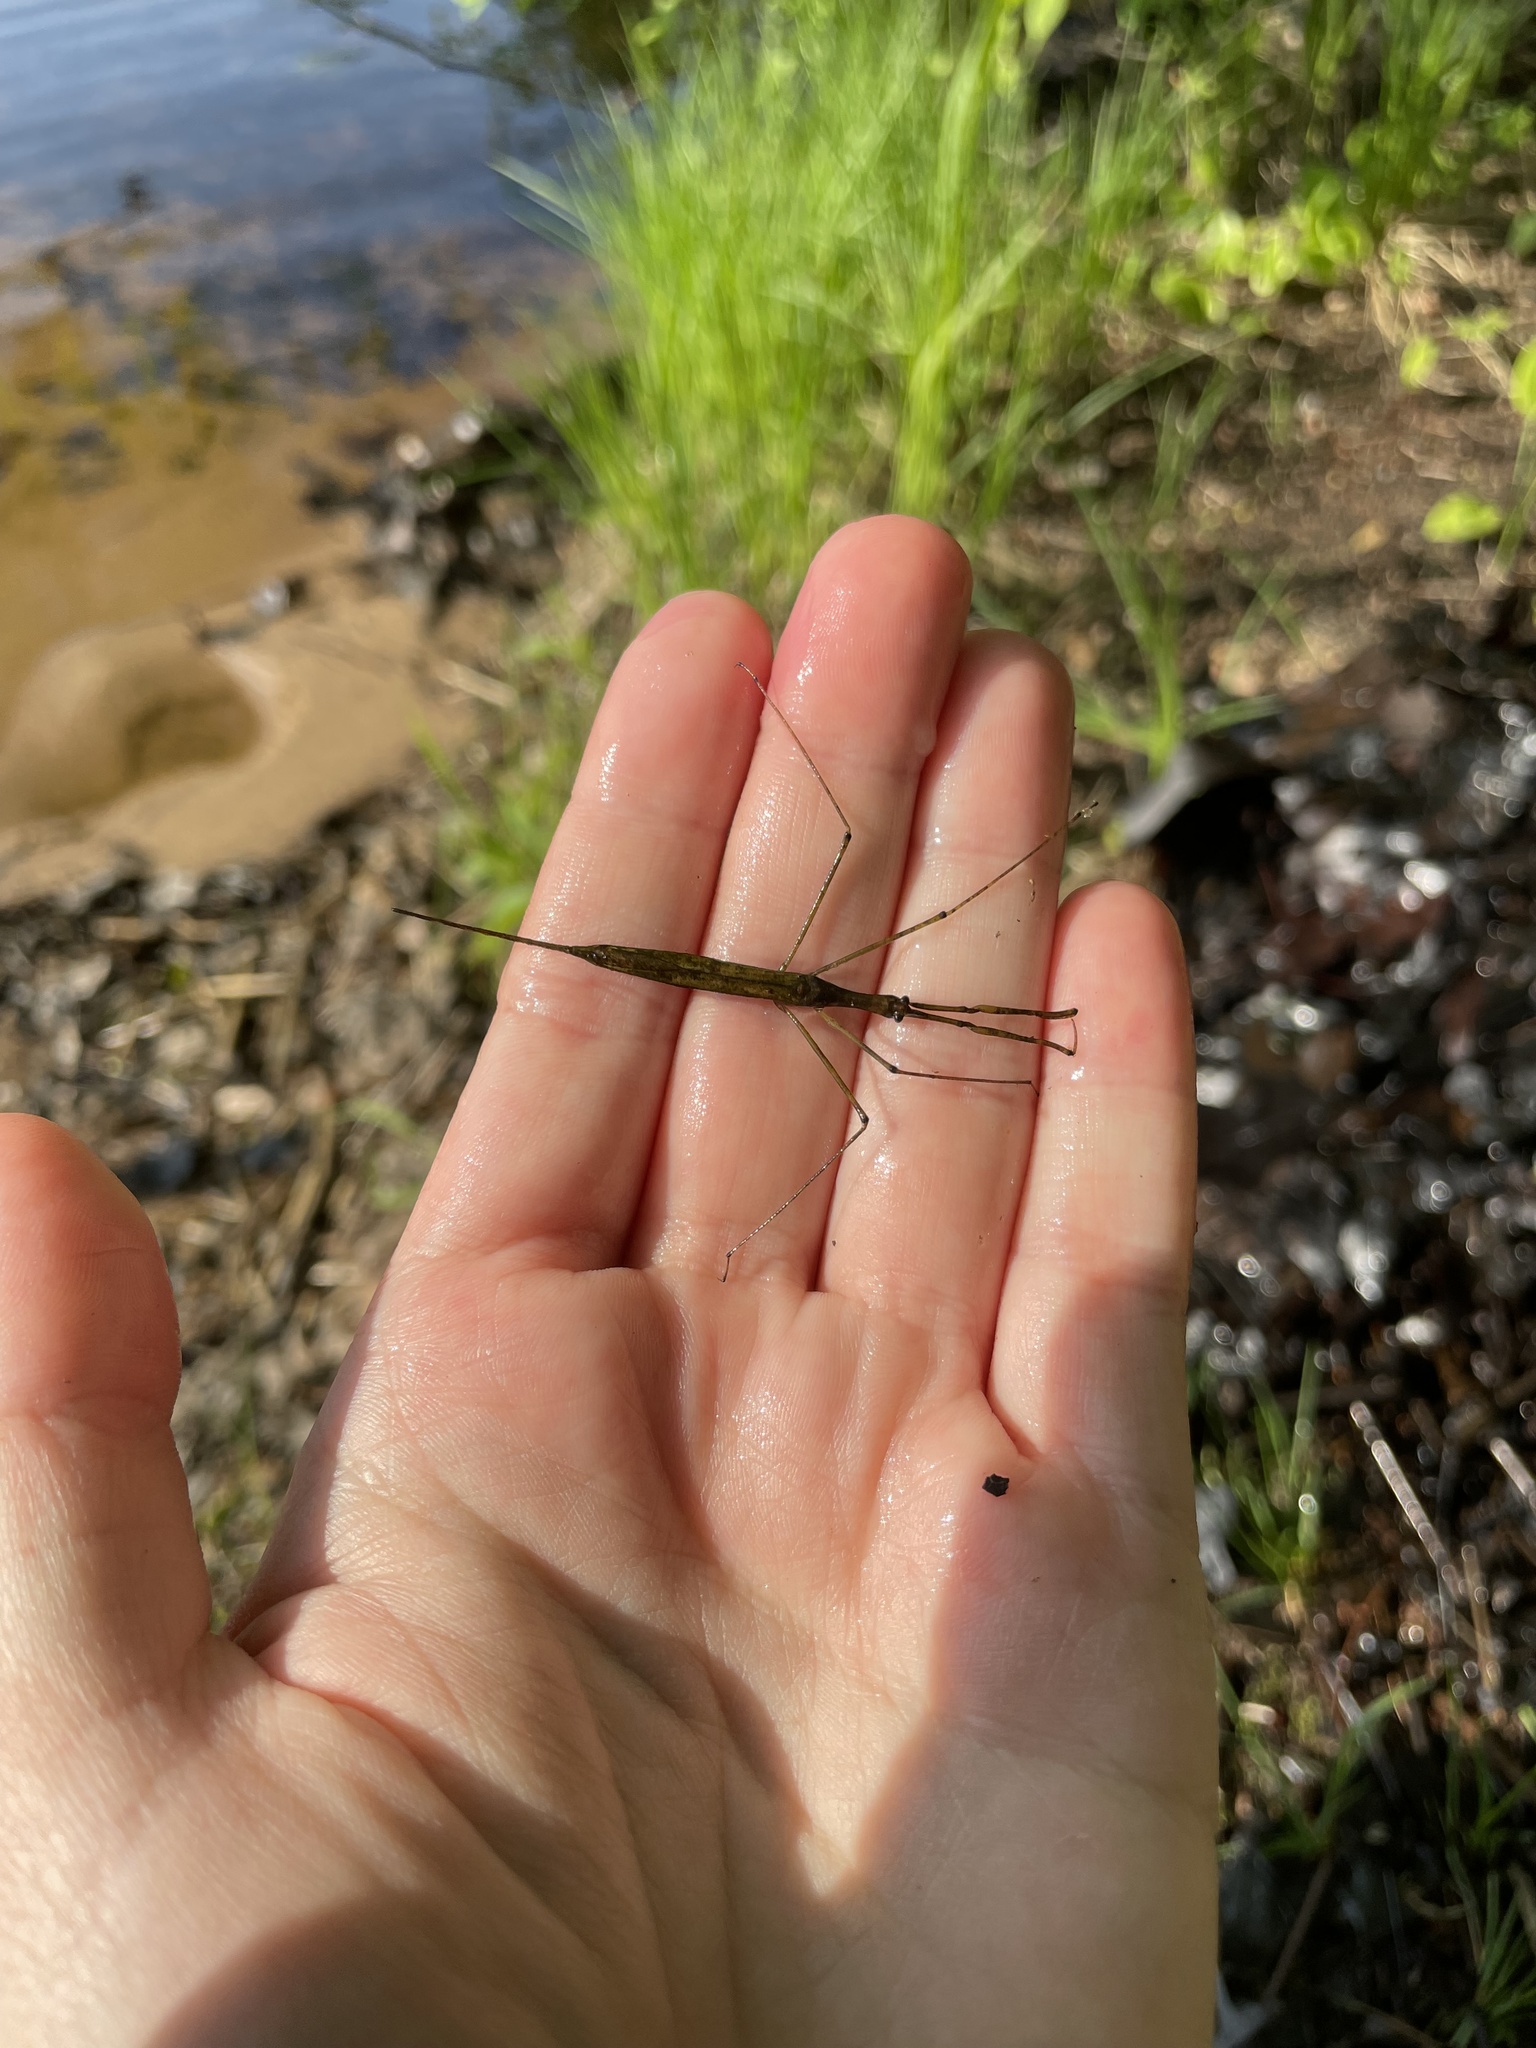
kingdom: Animalia
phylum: Arthropoda
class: Insecta
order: Hemiptera
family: Nepidae
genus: Ranatra
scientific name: Ranatra
